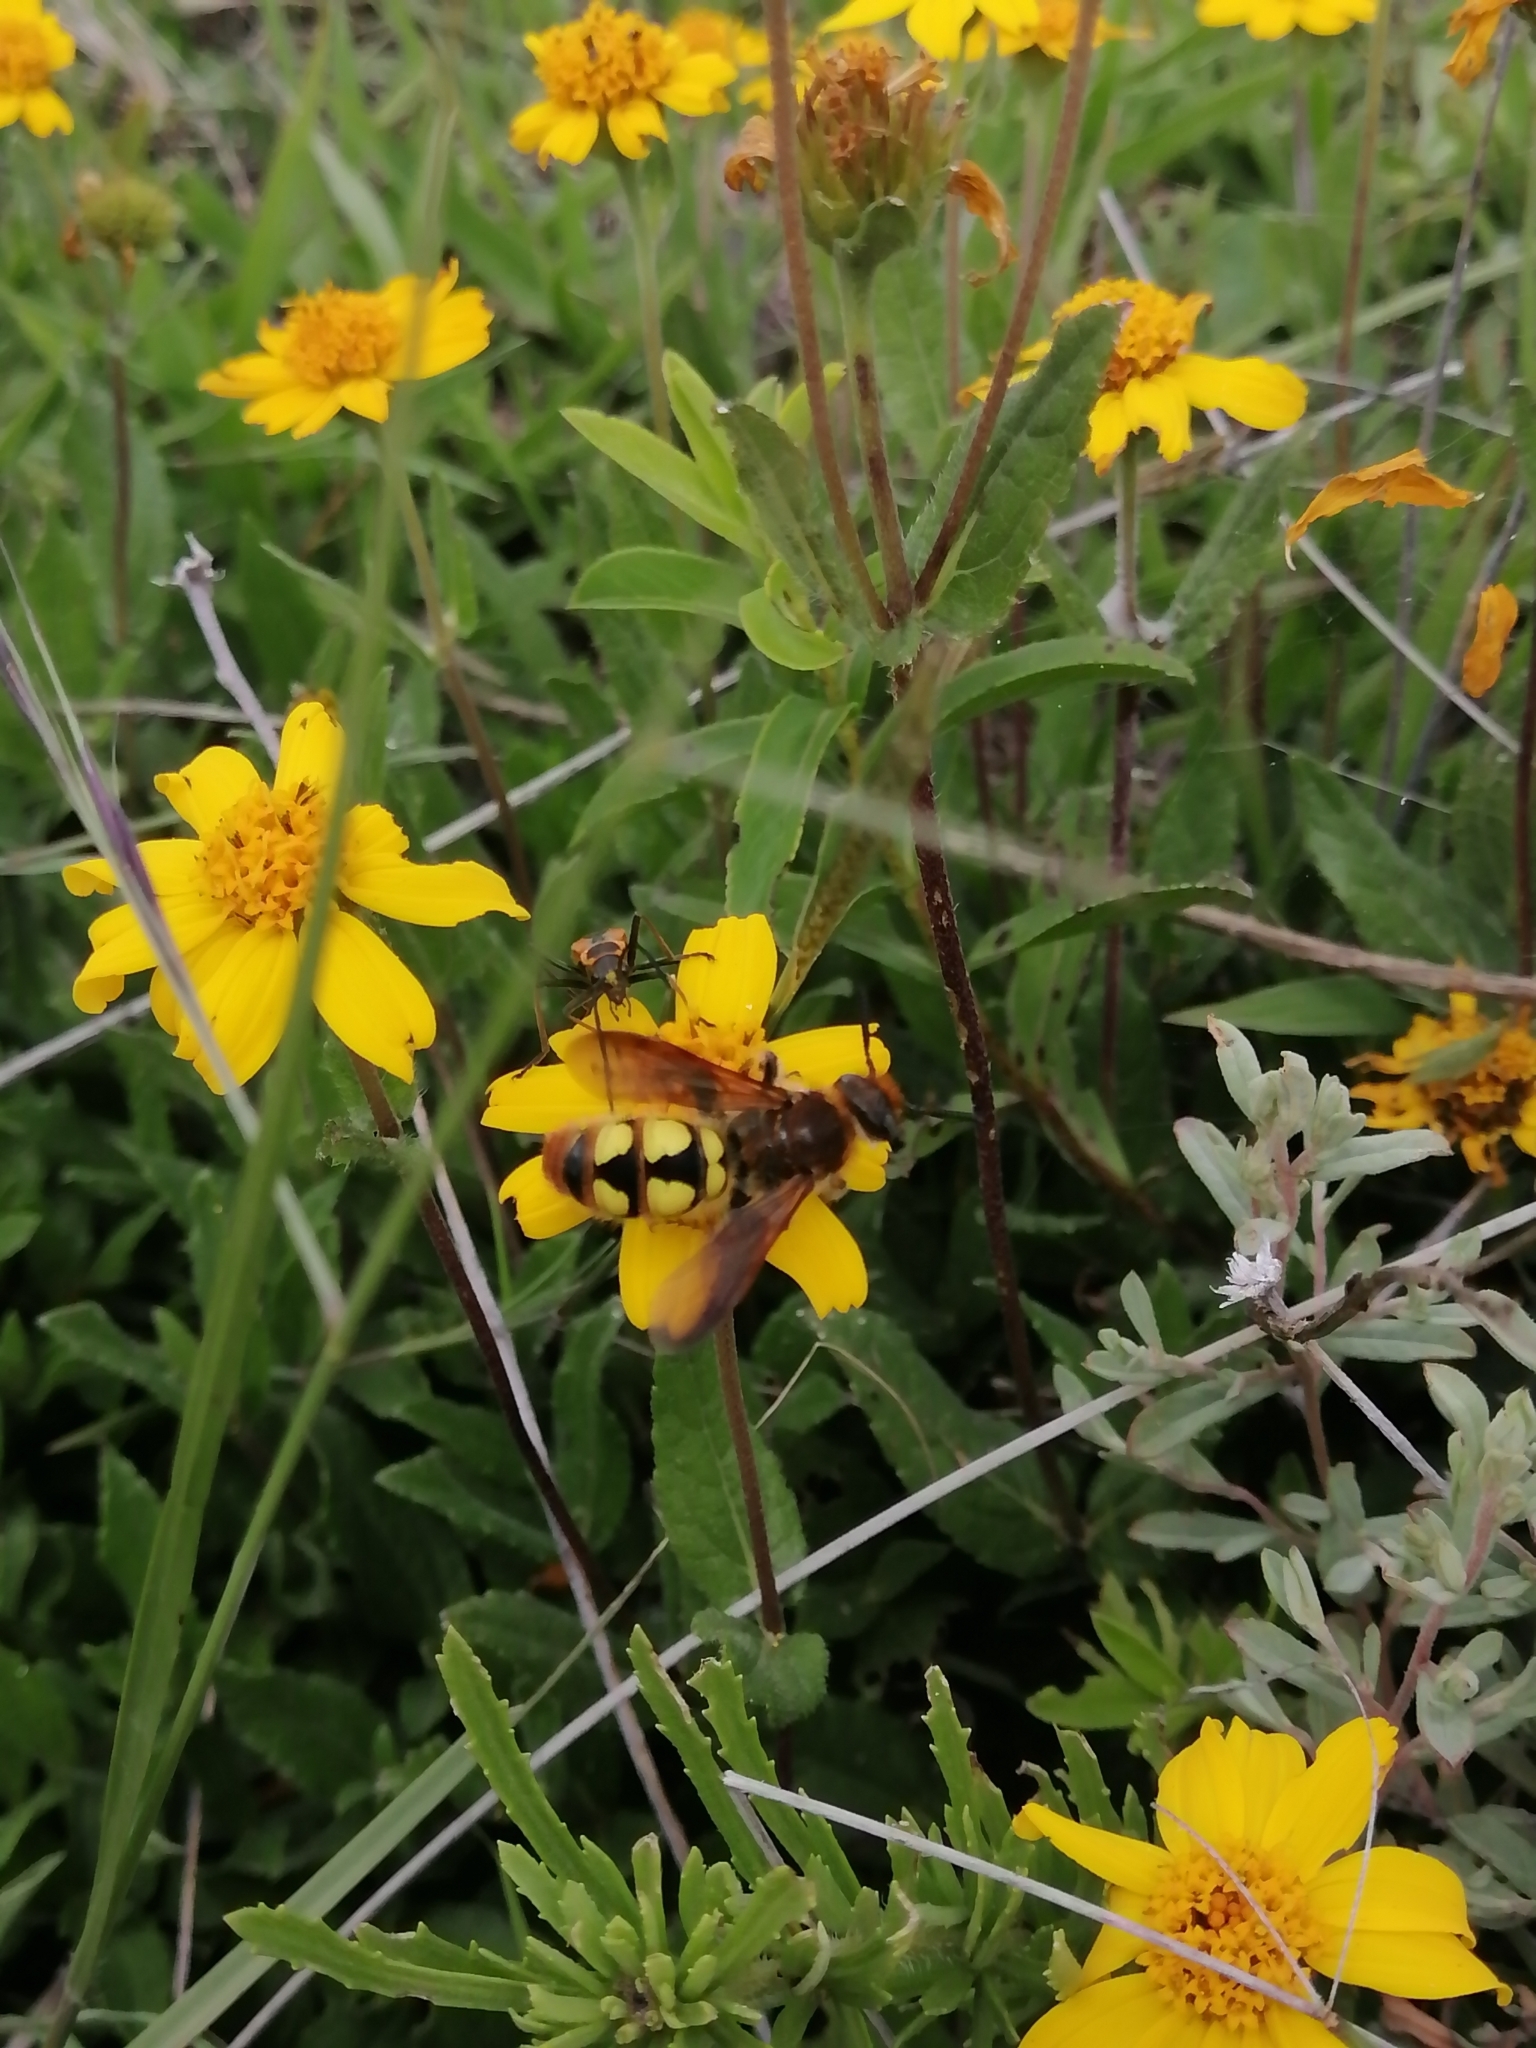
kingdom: Animalia
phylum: Arthropoda
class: Insecta
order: Hymenoptera
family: Scoliidae
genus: Xantocampsomeris
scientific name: Xantocampsomeris limosa
